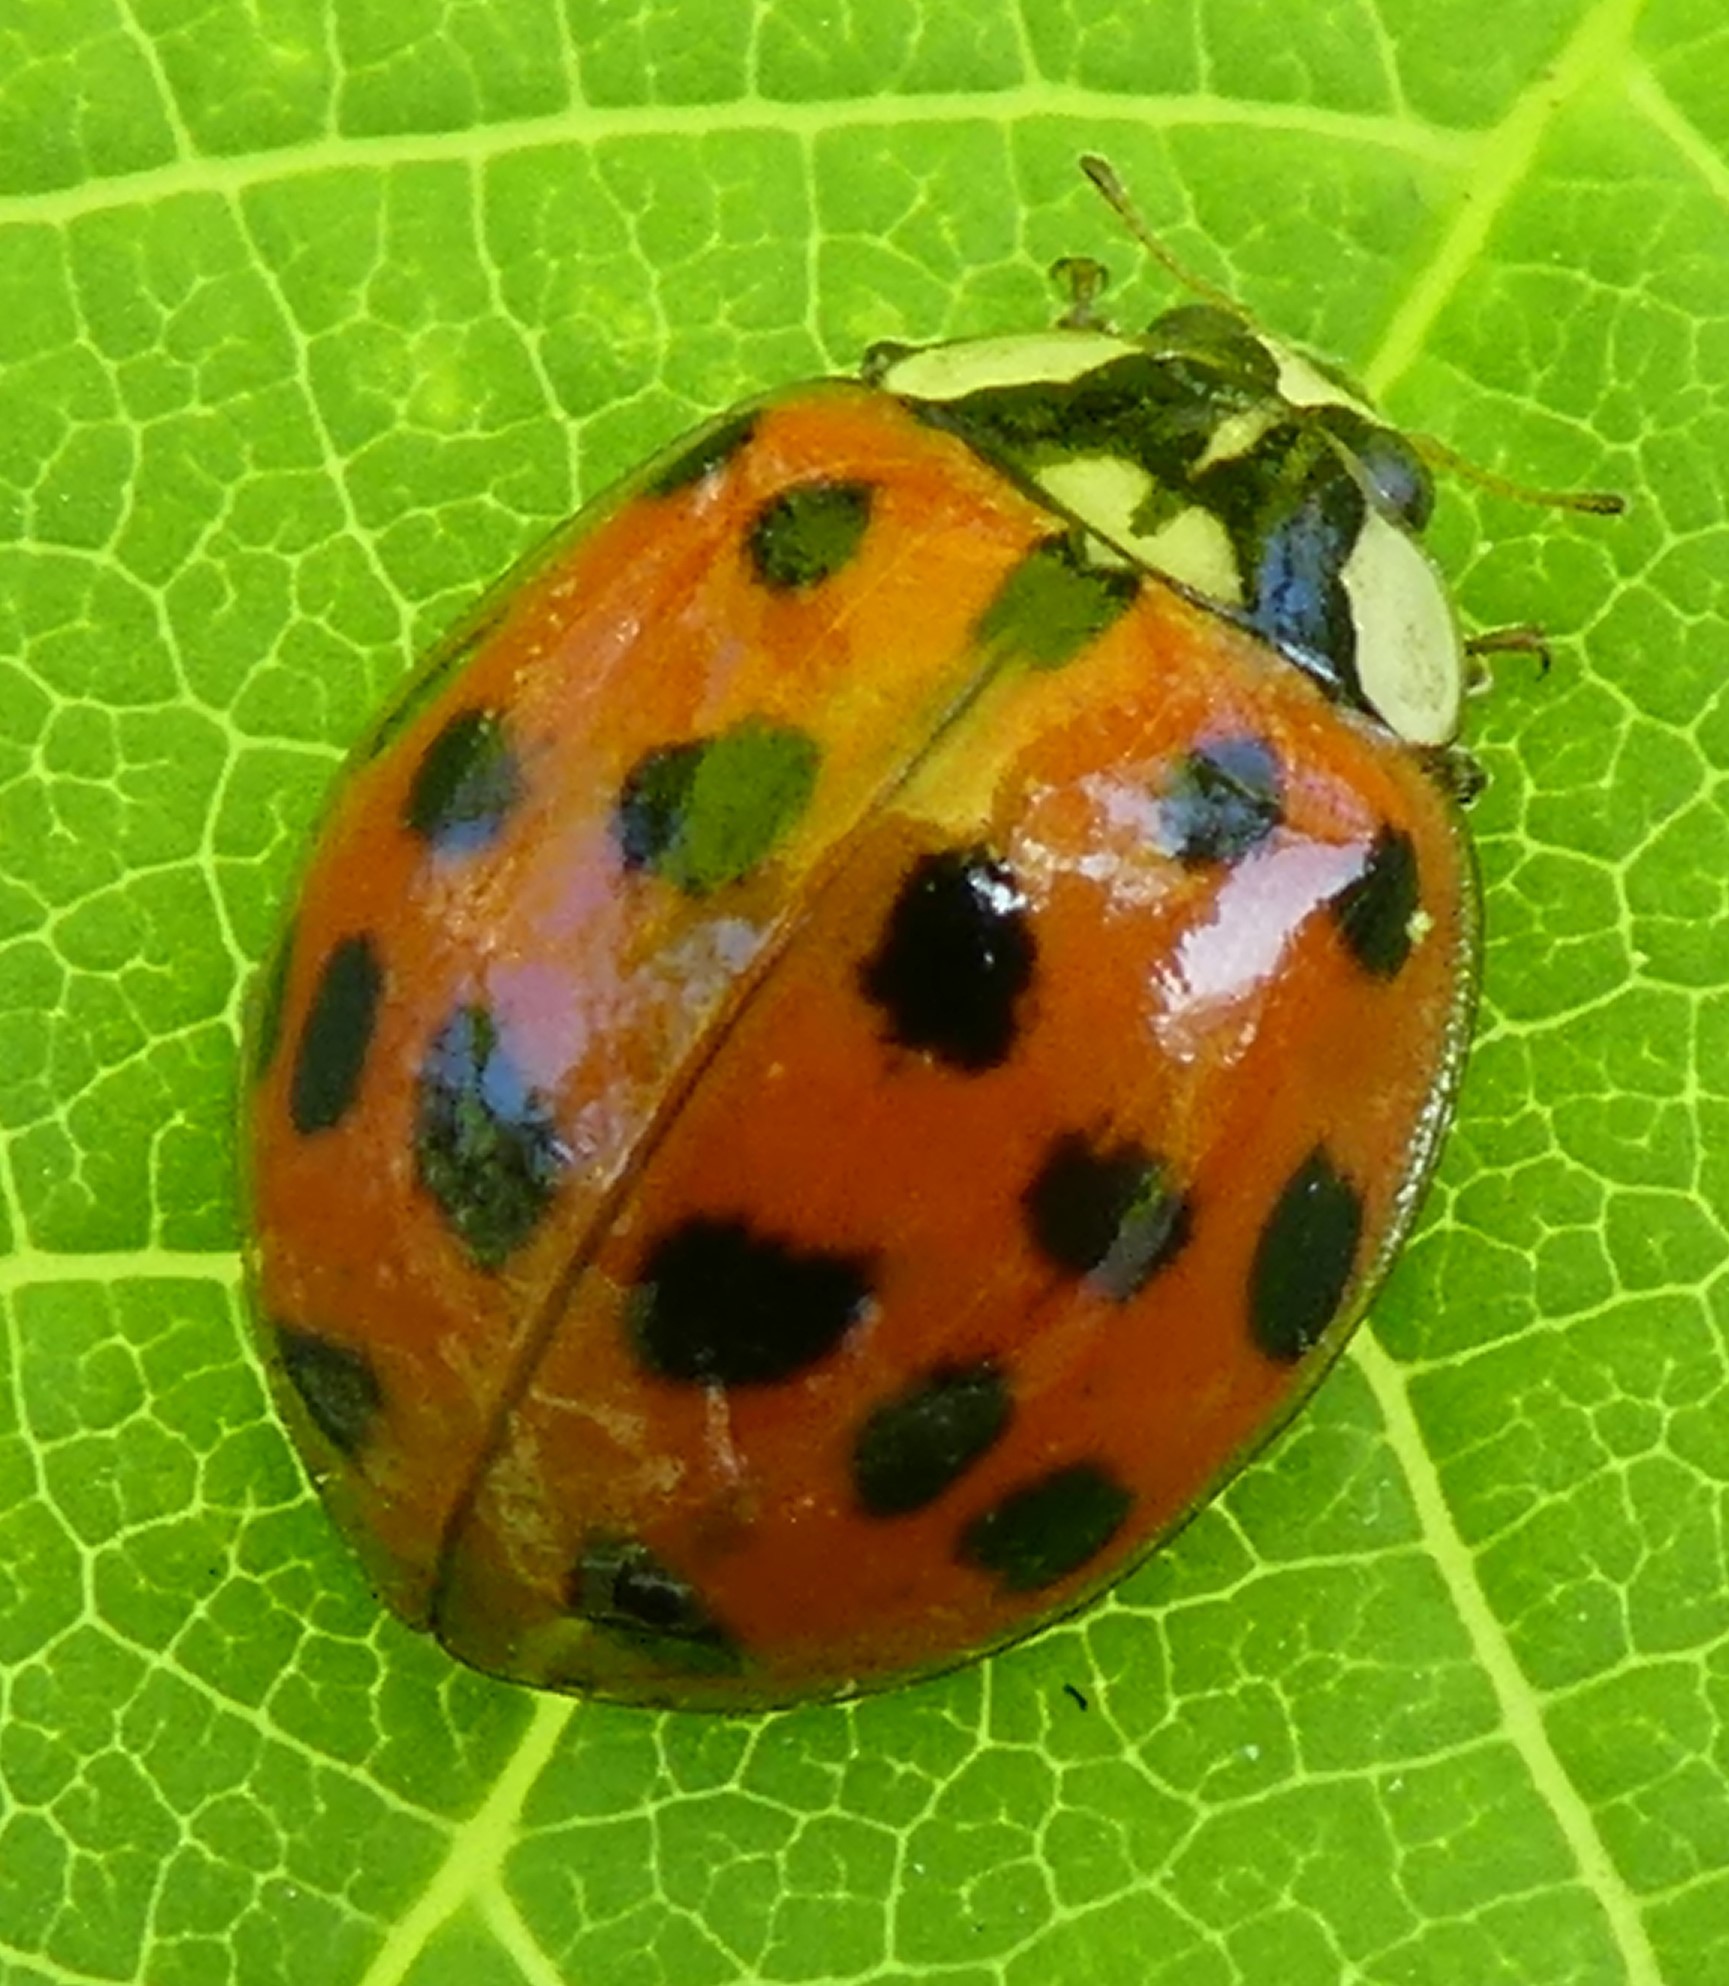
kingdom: Animalia
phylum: Arthropoda
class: Insecta
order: Coleoptera
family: Coccinellidae
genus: Harmonia
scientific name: Harmonia axyridis
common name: Harlequin ladybird
